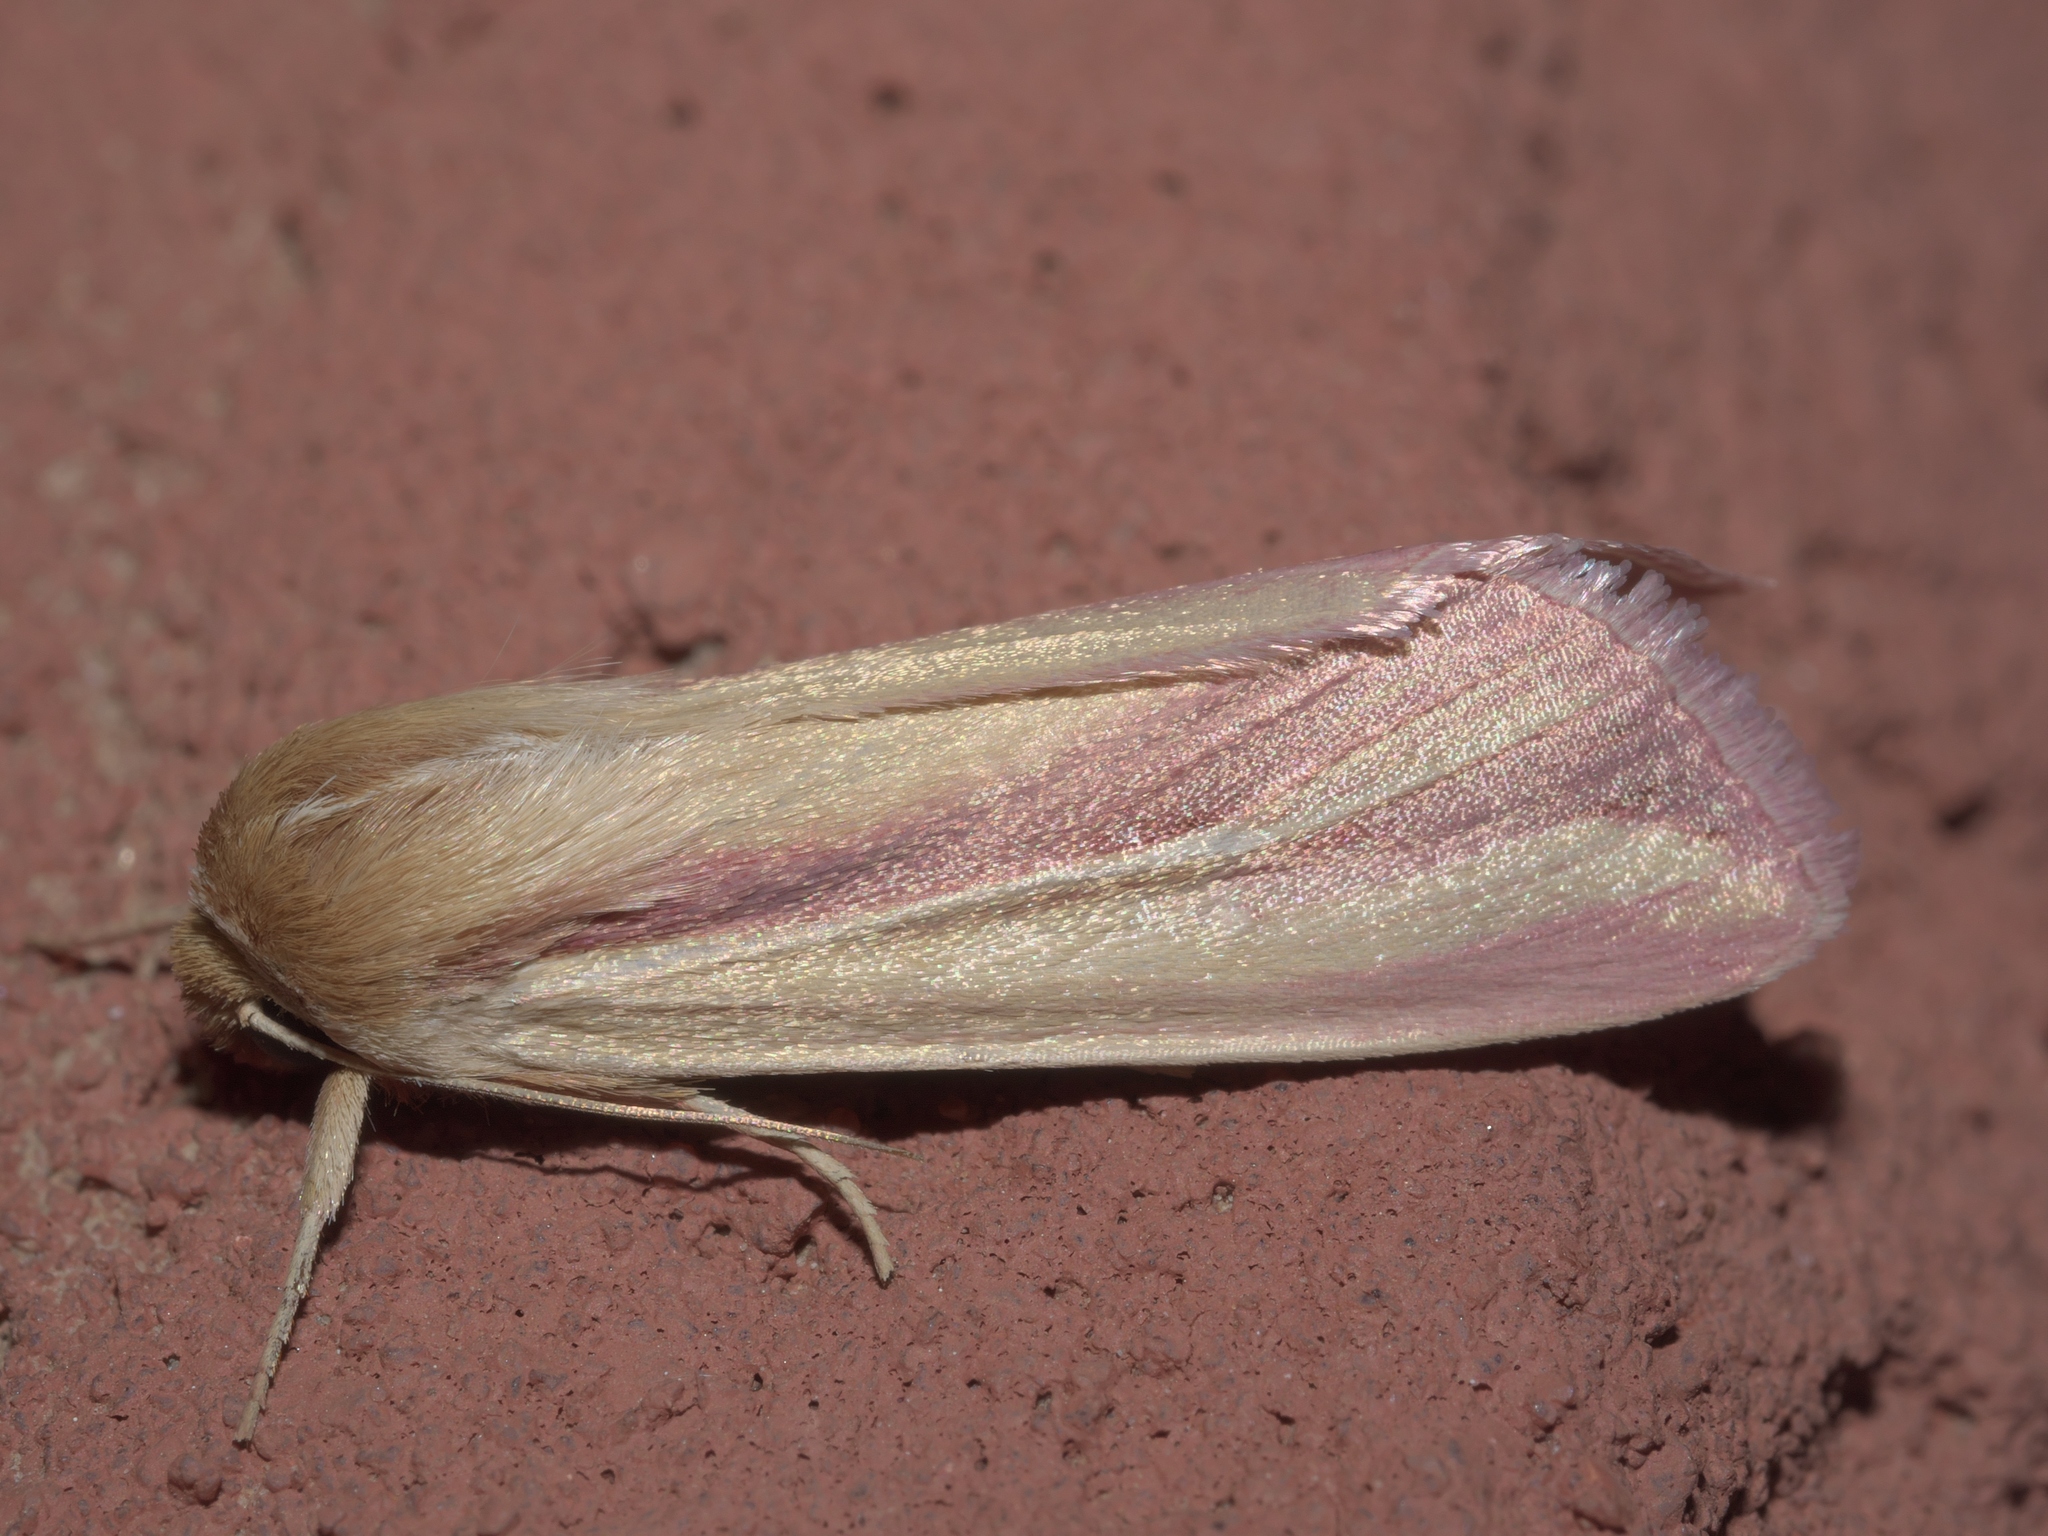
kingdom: Animalia
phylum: Arthropoda
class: Insecta
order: Lepidoptera
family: Noctuidae
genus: Dargida
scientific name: Dargida rubripennis
